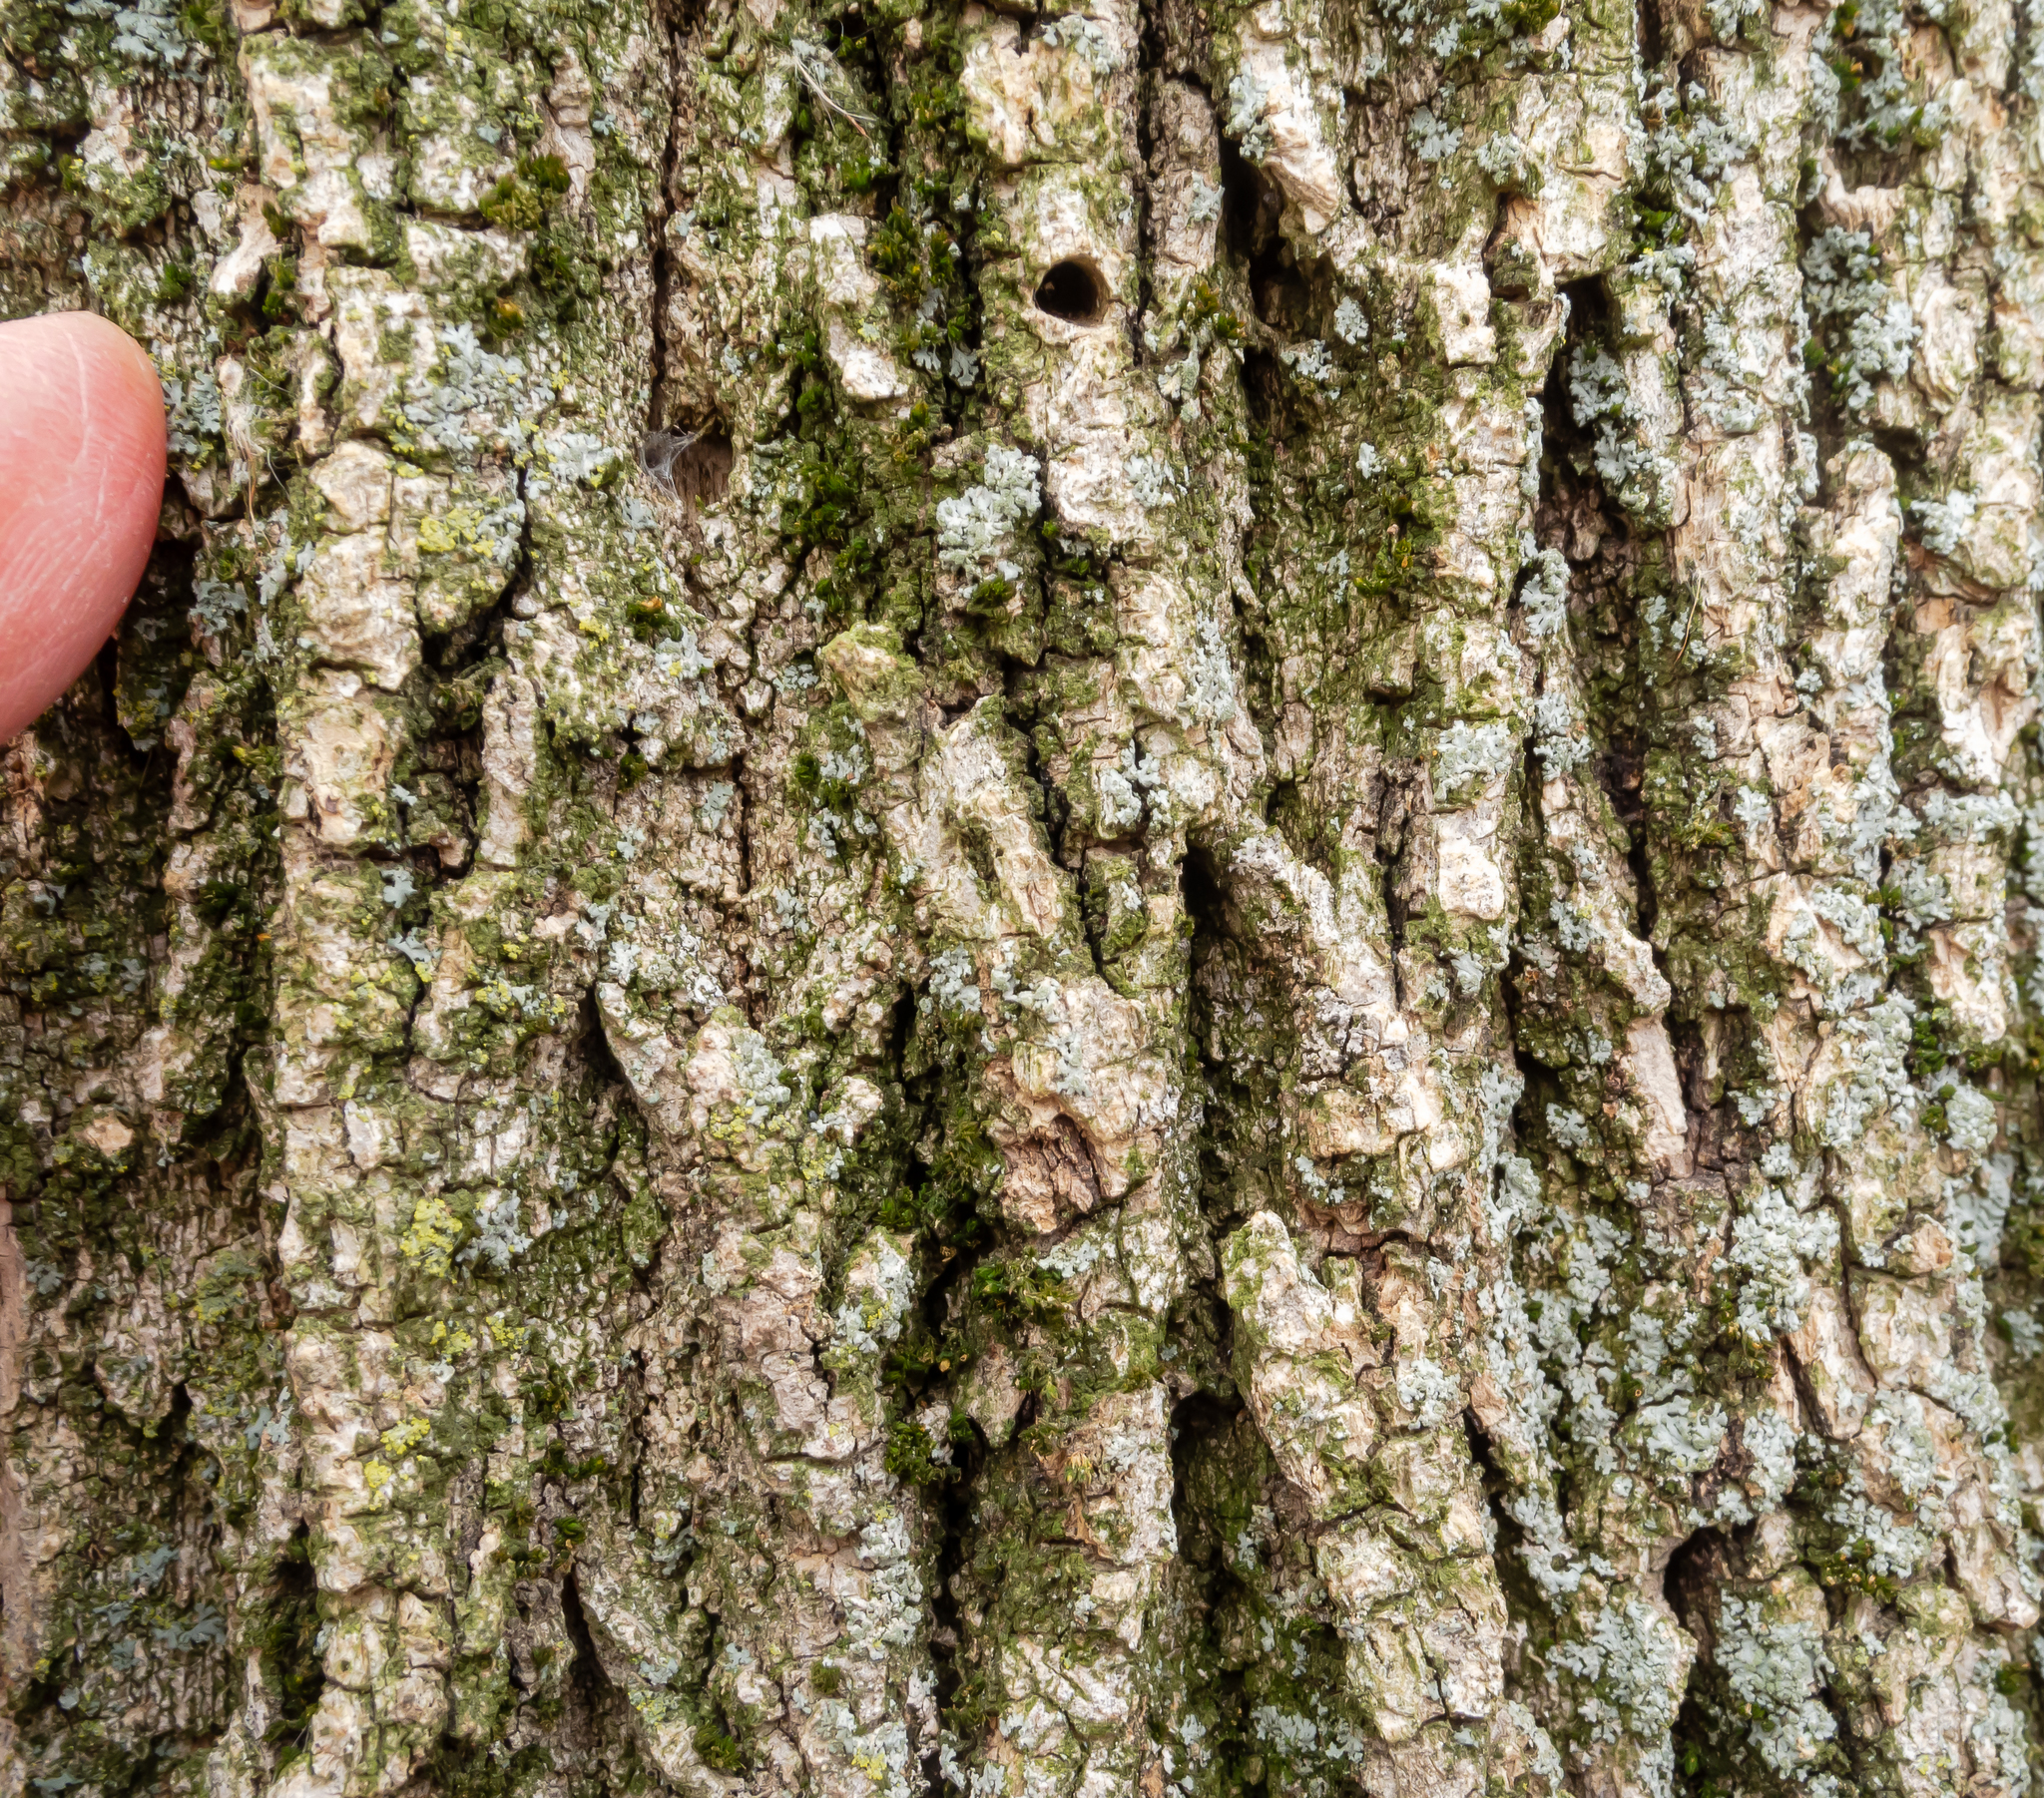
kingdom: Animalia
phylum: Arthropoda
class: Insecta
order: Coleoptera
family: Buprestidae
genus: Agrilus
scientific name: Agrilus planipennis
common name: Emerald ash borer
